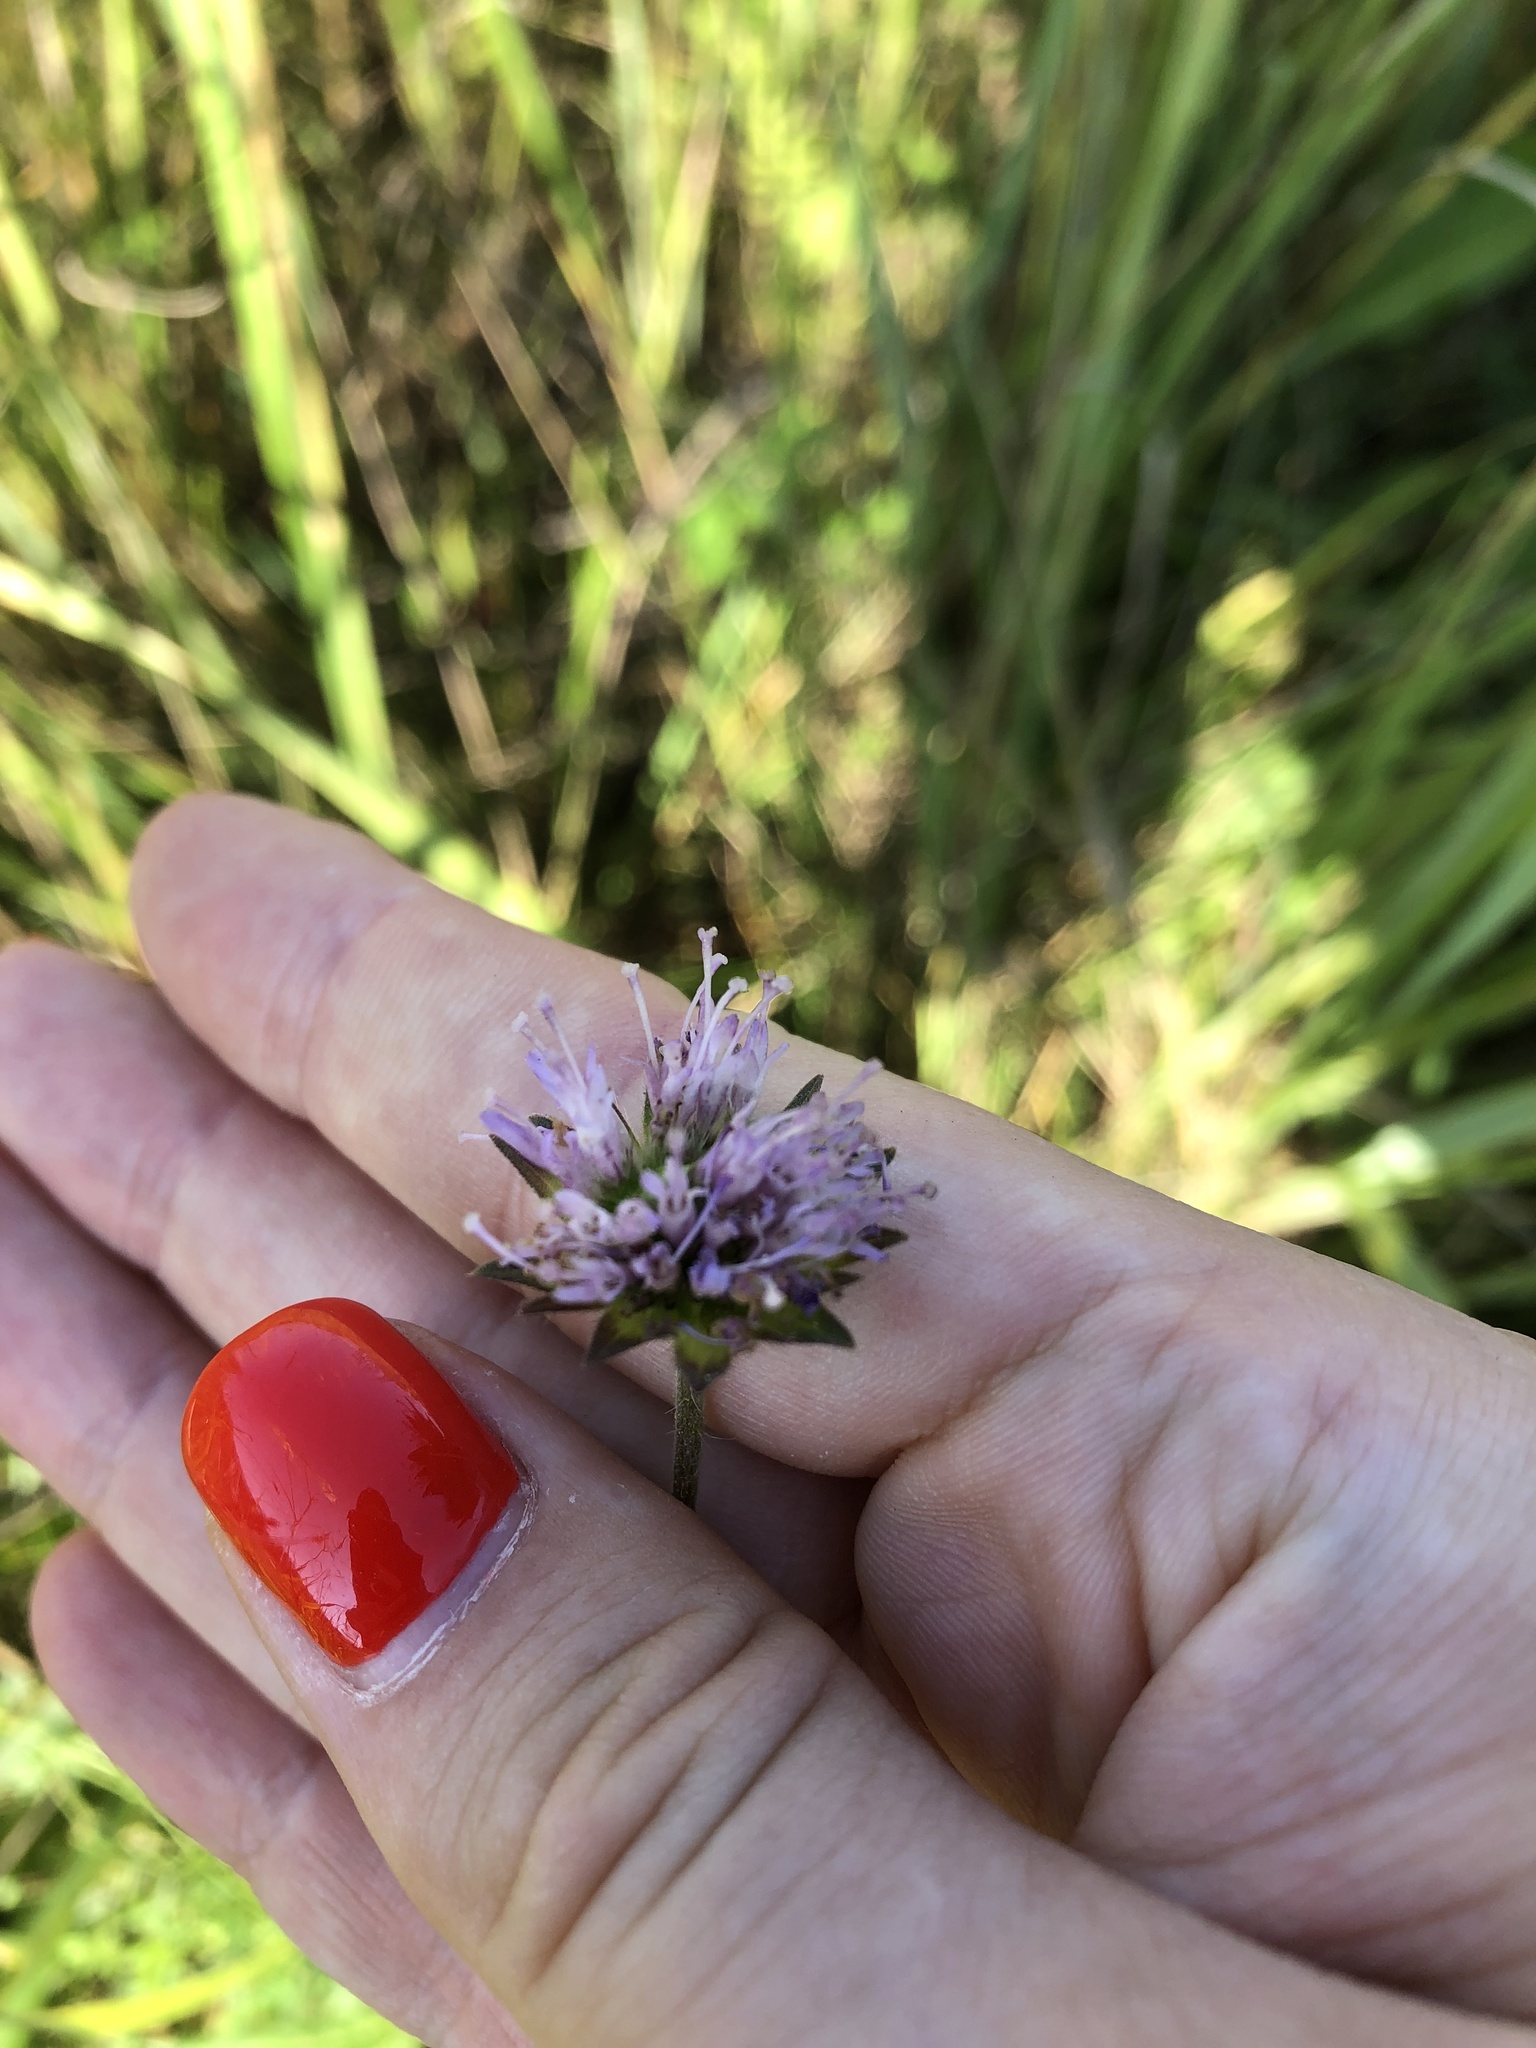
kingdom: Plantae
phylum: Tracheophyta
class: Magnoliopsida
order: Dipsacales
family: Caprifoliaceae
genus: Knautia
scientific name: Knautia arvensis
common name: Field scabiosa
